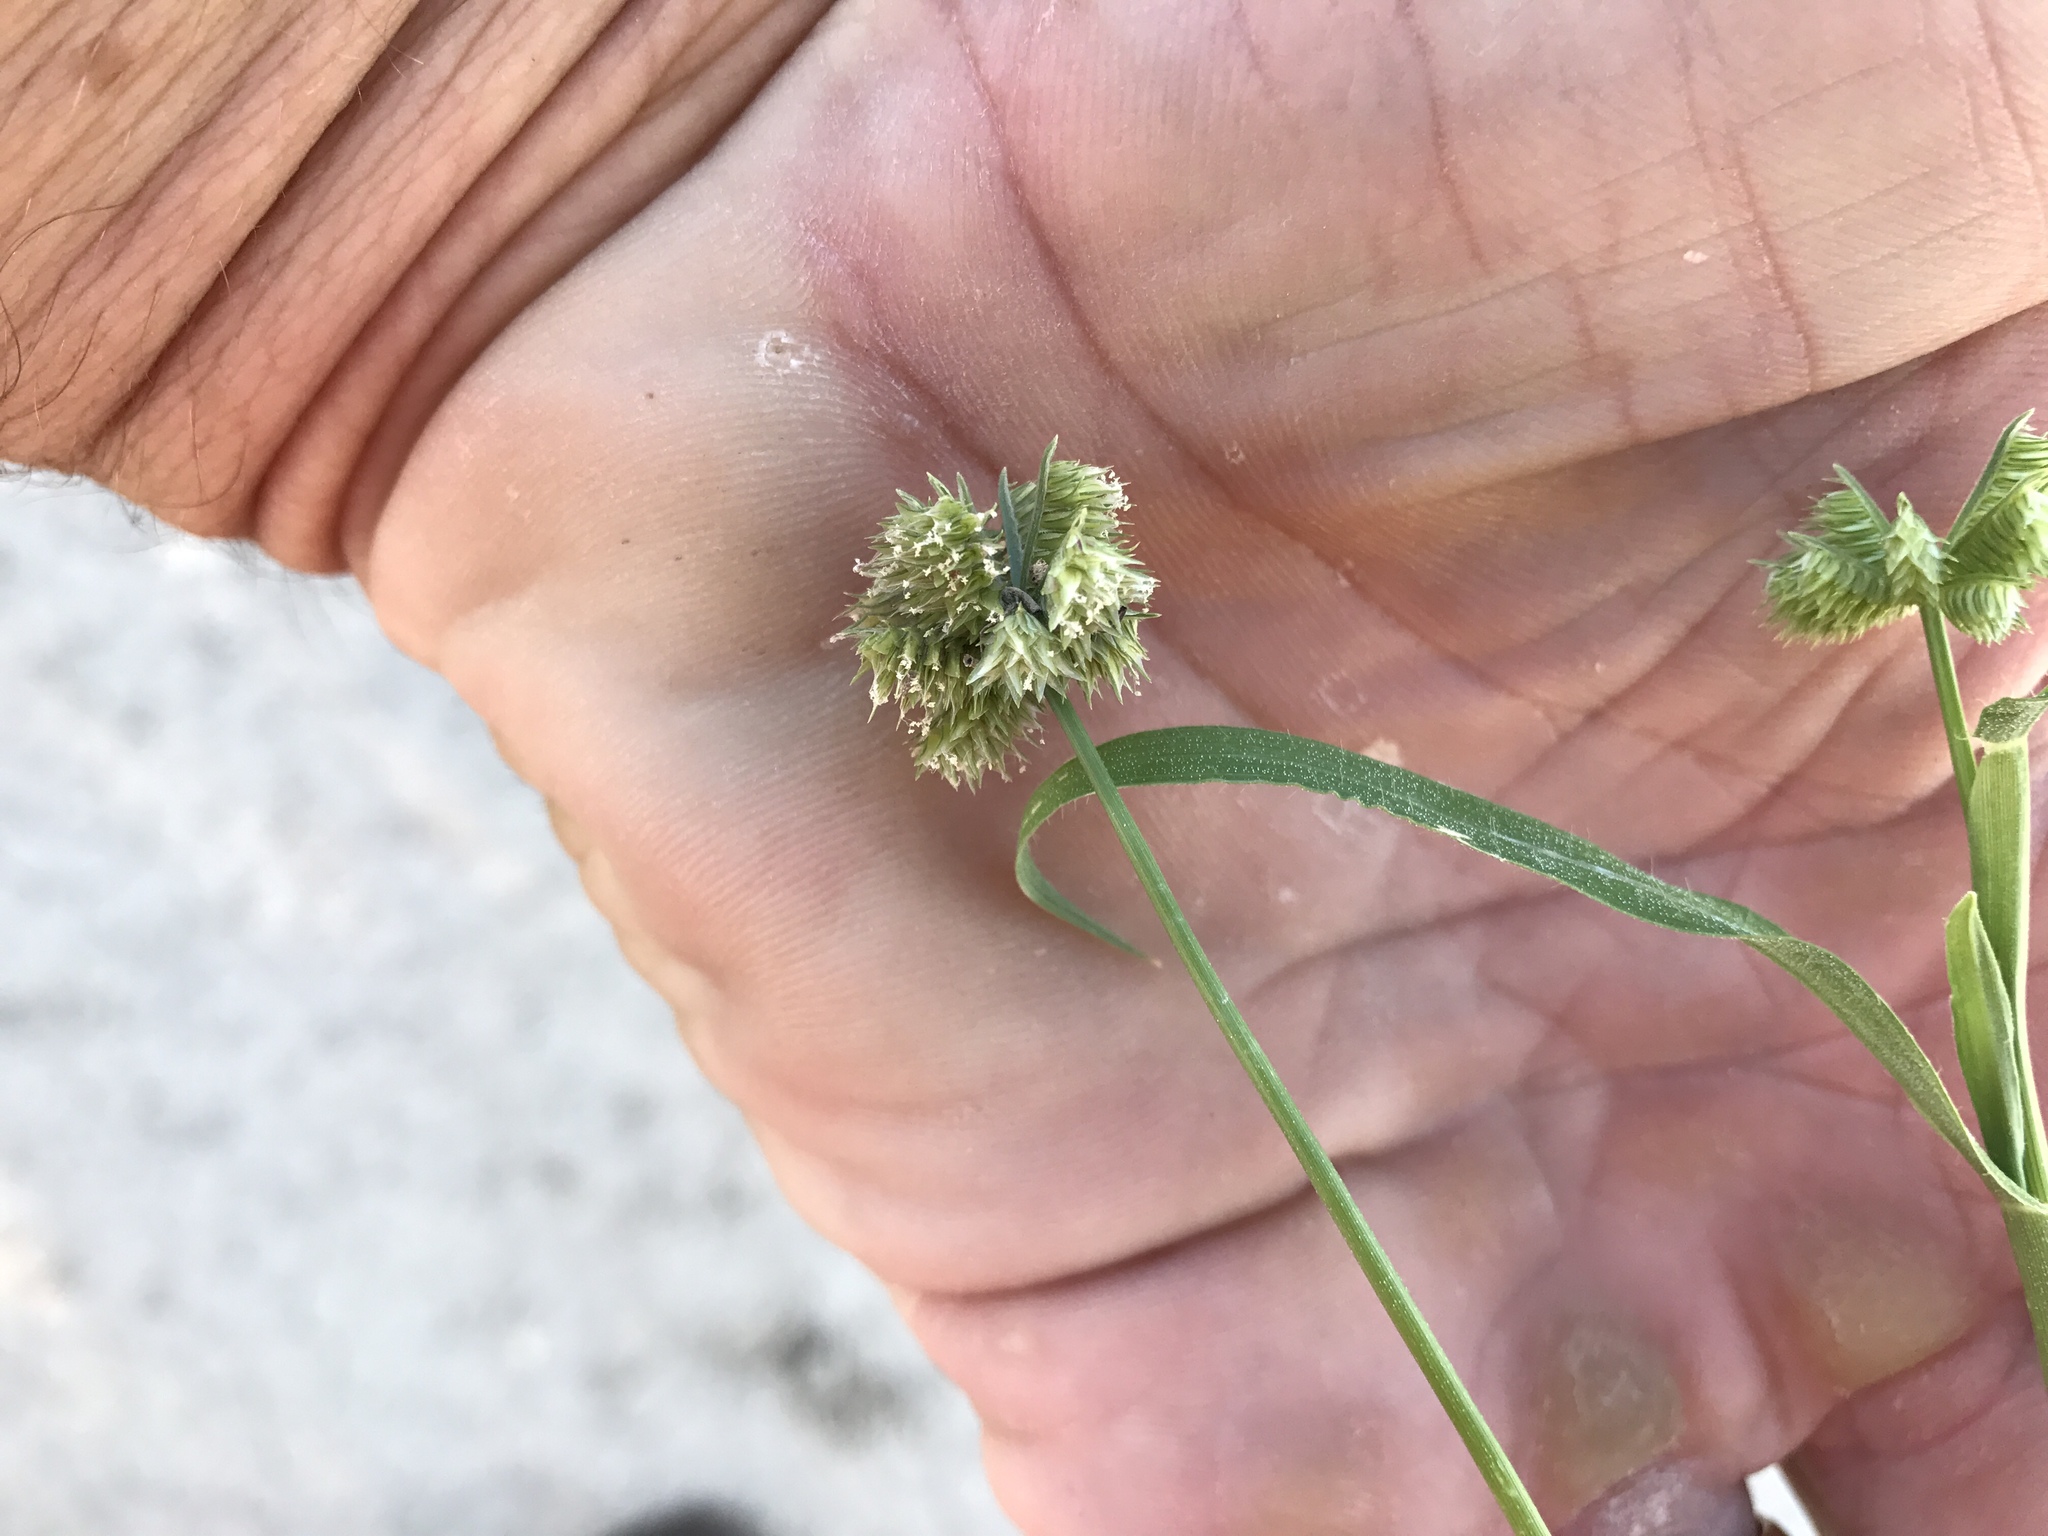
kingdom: Plantae
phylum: Tracheophyta
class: Liliopsida
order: Poales
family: Poaceae
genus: Dactyloctenium
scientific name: Dactyloctenium radulans
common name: Button-grass
